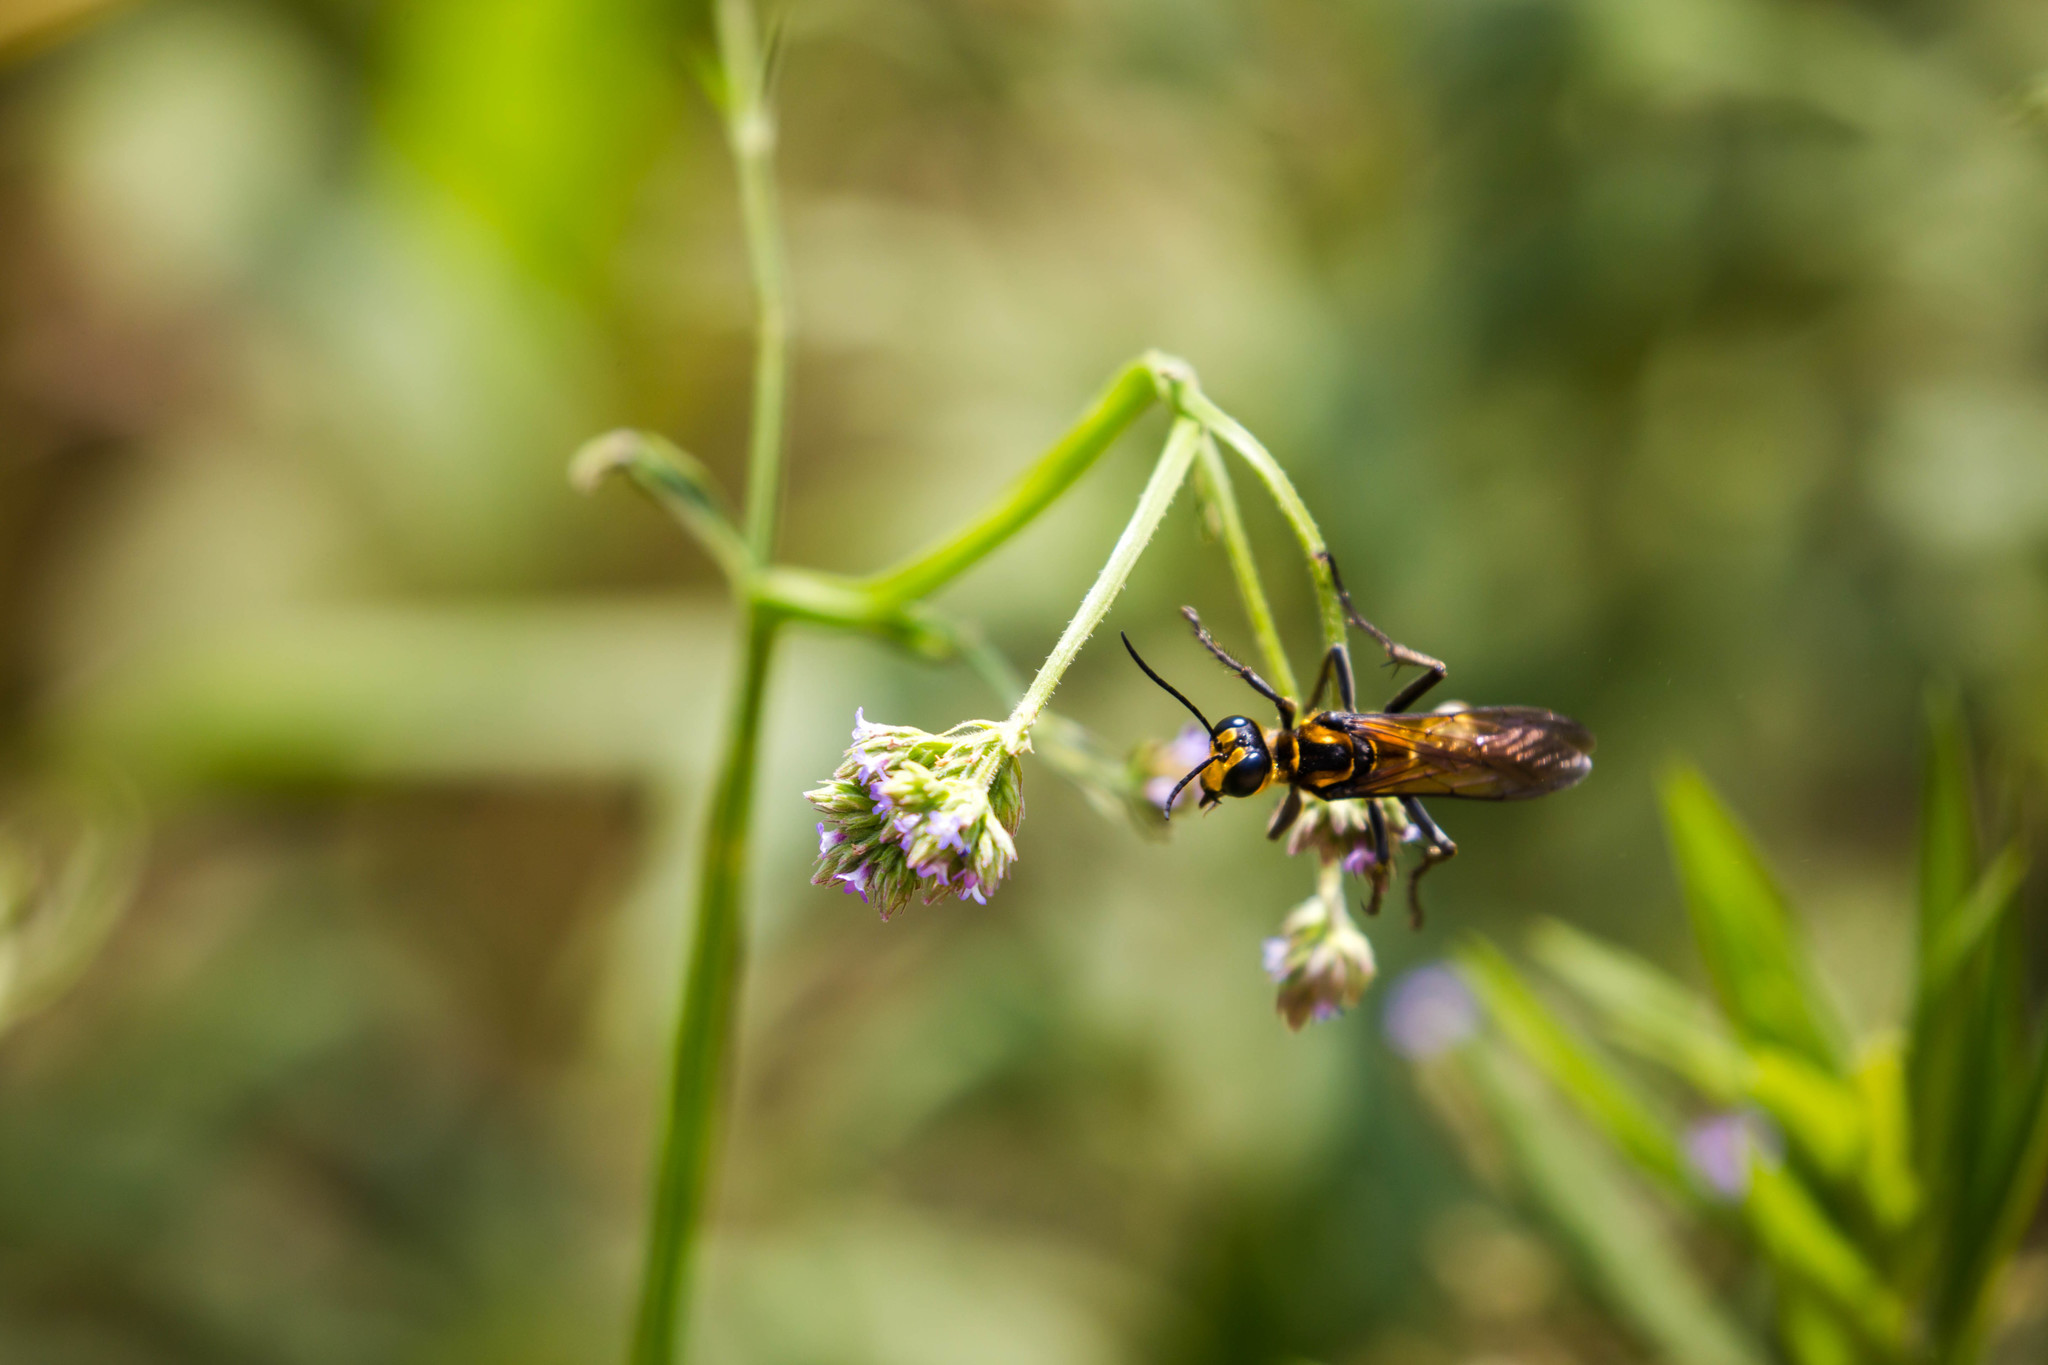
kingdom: Animalia
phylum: Arthropoda
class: Insecta
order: Hymenoptera
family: Sphecidae
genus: Sphex
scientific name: Sphex habenus
